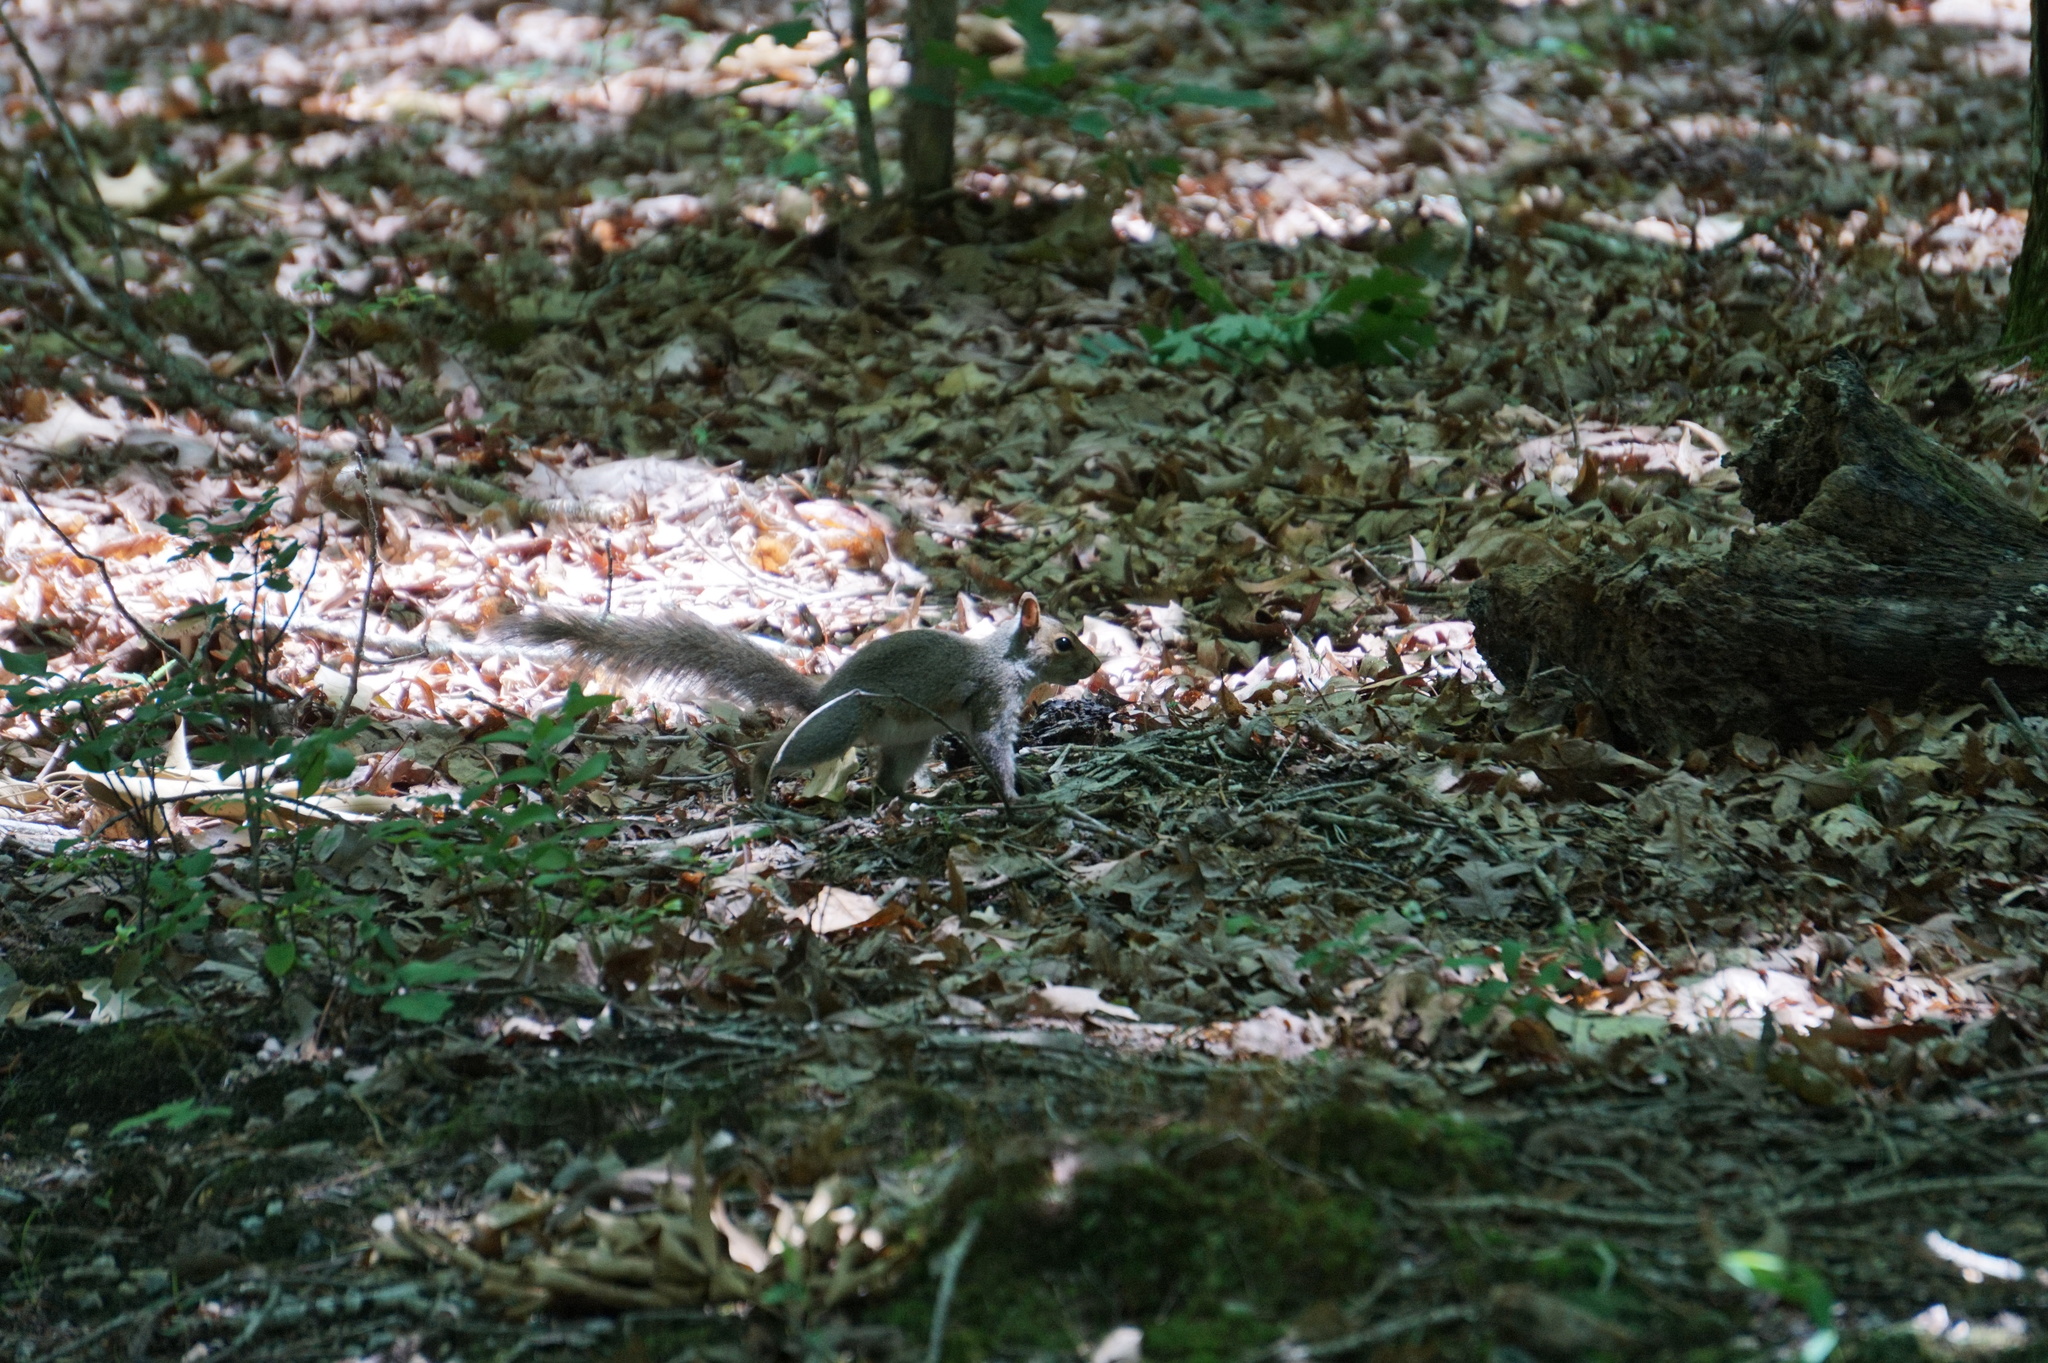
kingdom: Animalia
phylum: Chordata
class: Mammalia
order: Rodentia
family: Sciuridae
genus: Sciurus
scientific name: Sciurus carolinensis
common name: Eastern gray squirrel
